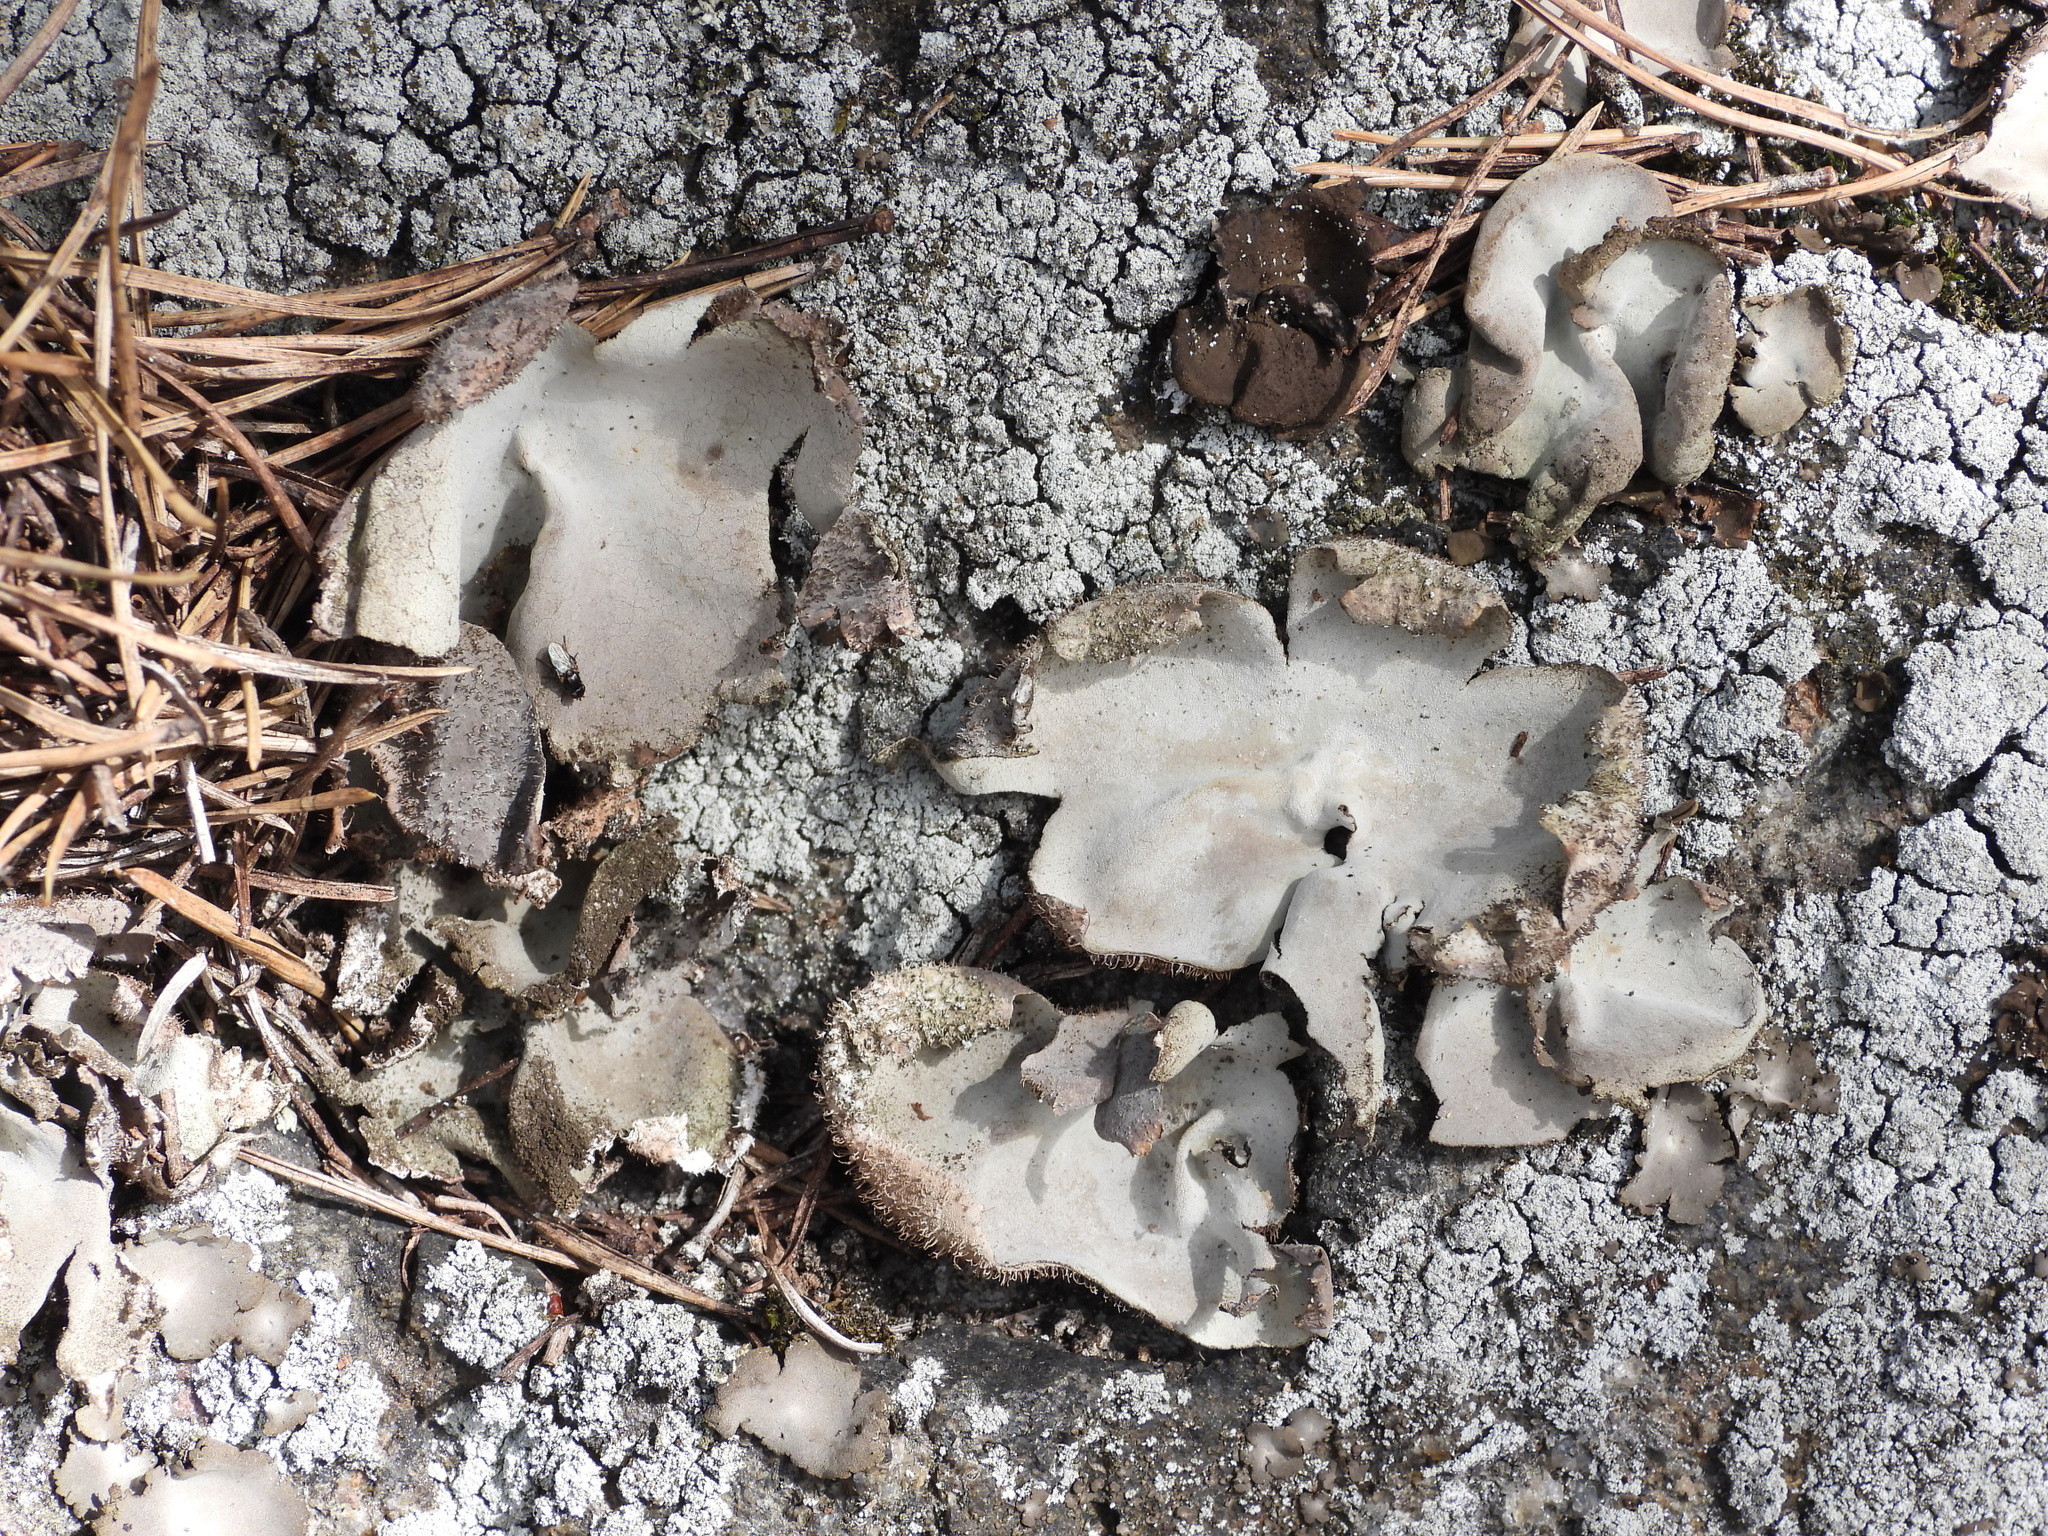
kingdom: Fungi
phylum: Ascomycota
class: Lecanoromycetes
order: Umbilicariales
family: Umbilicariaceae
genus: Umbilicaria
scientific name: Umbilicaria hirsuta
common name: Granulating rocktripe lichen
